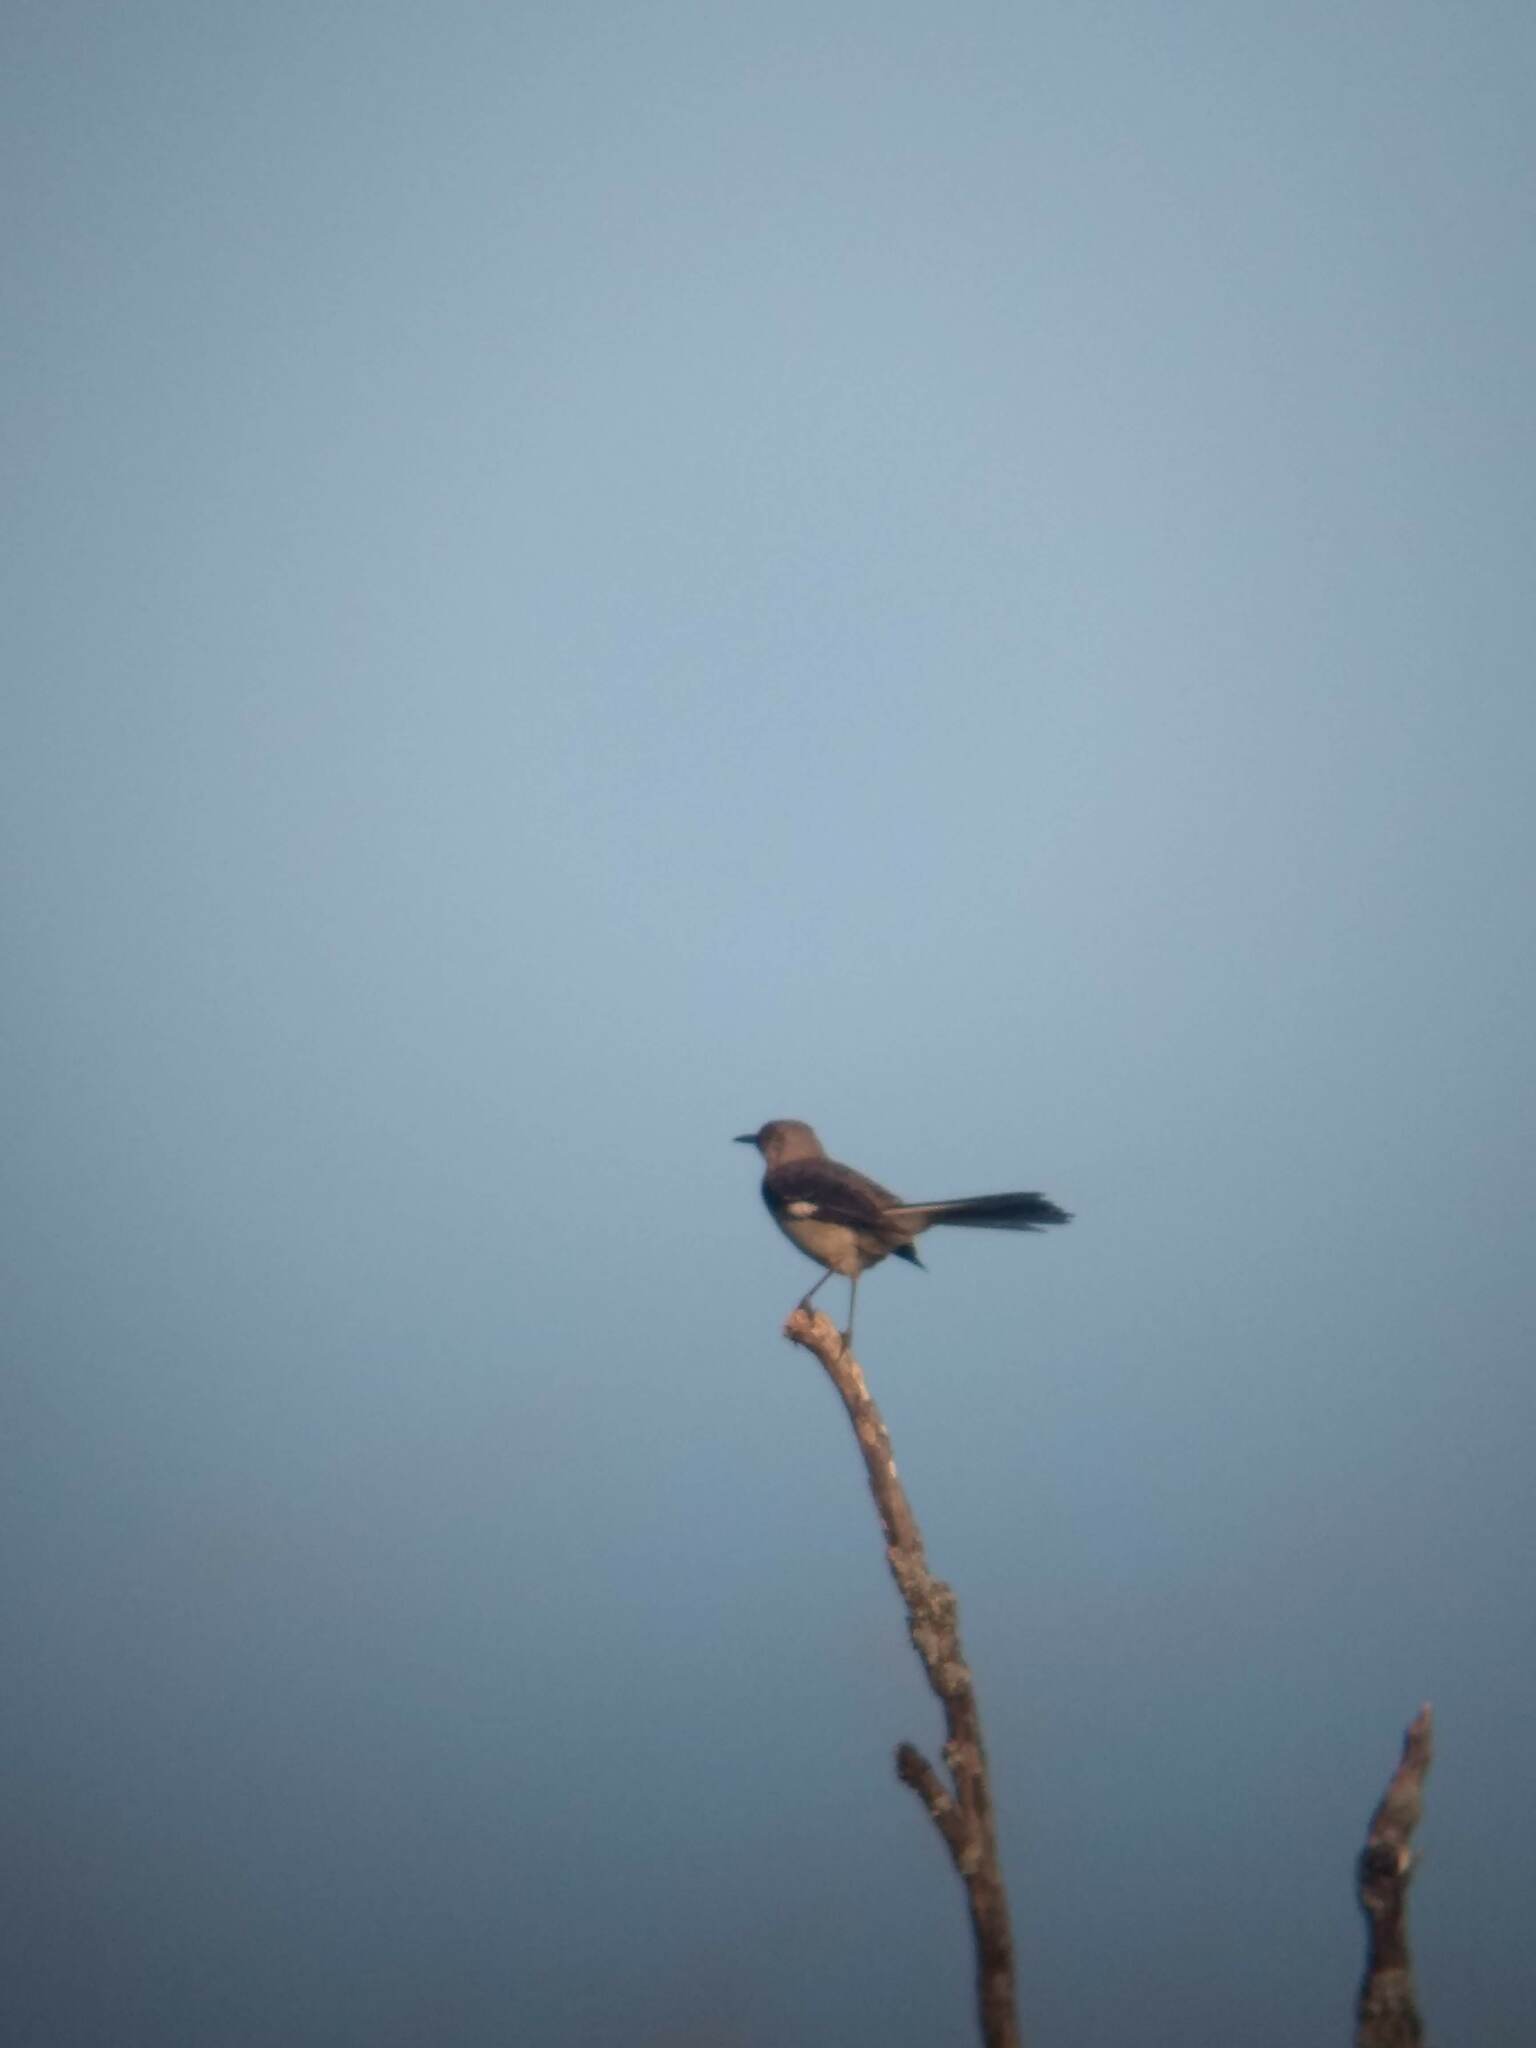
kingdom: Animalia
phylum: Chordata
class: Aves
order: Passeriformes
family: Mimidae
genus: Mimus
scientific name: Mimus polyglottos
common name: Northern mockingbird
